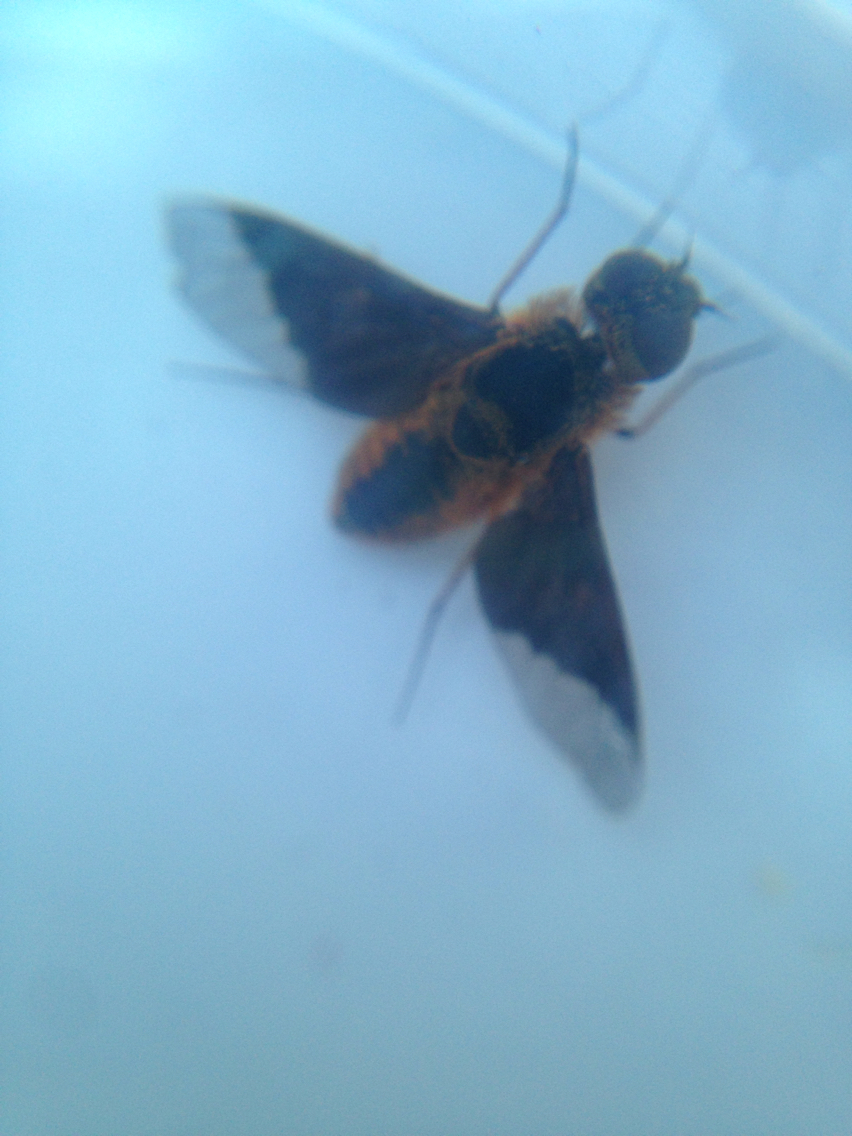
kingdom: Animalia
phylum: Arthropoda
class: Insecta
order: Diptera
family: Bombyliidae
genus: Chrysanthrax
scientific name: Chrysanthrax cypris
